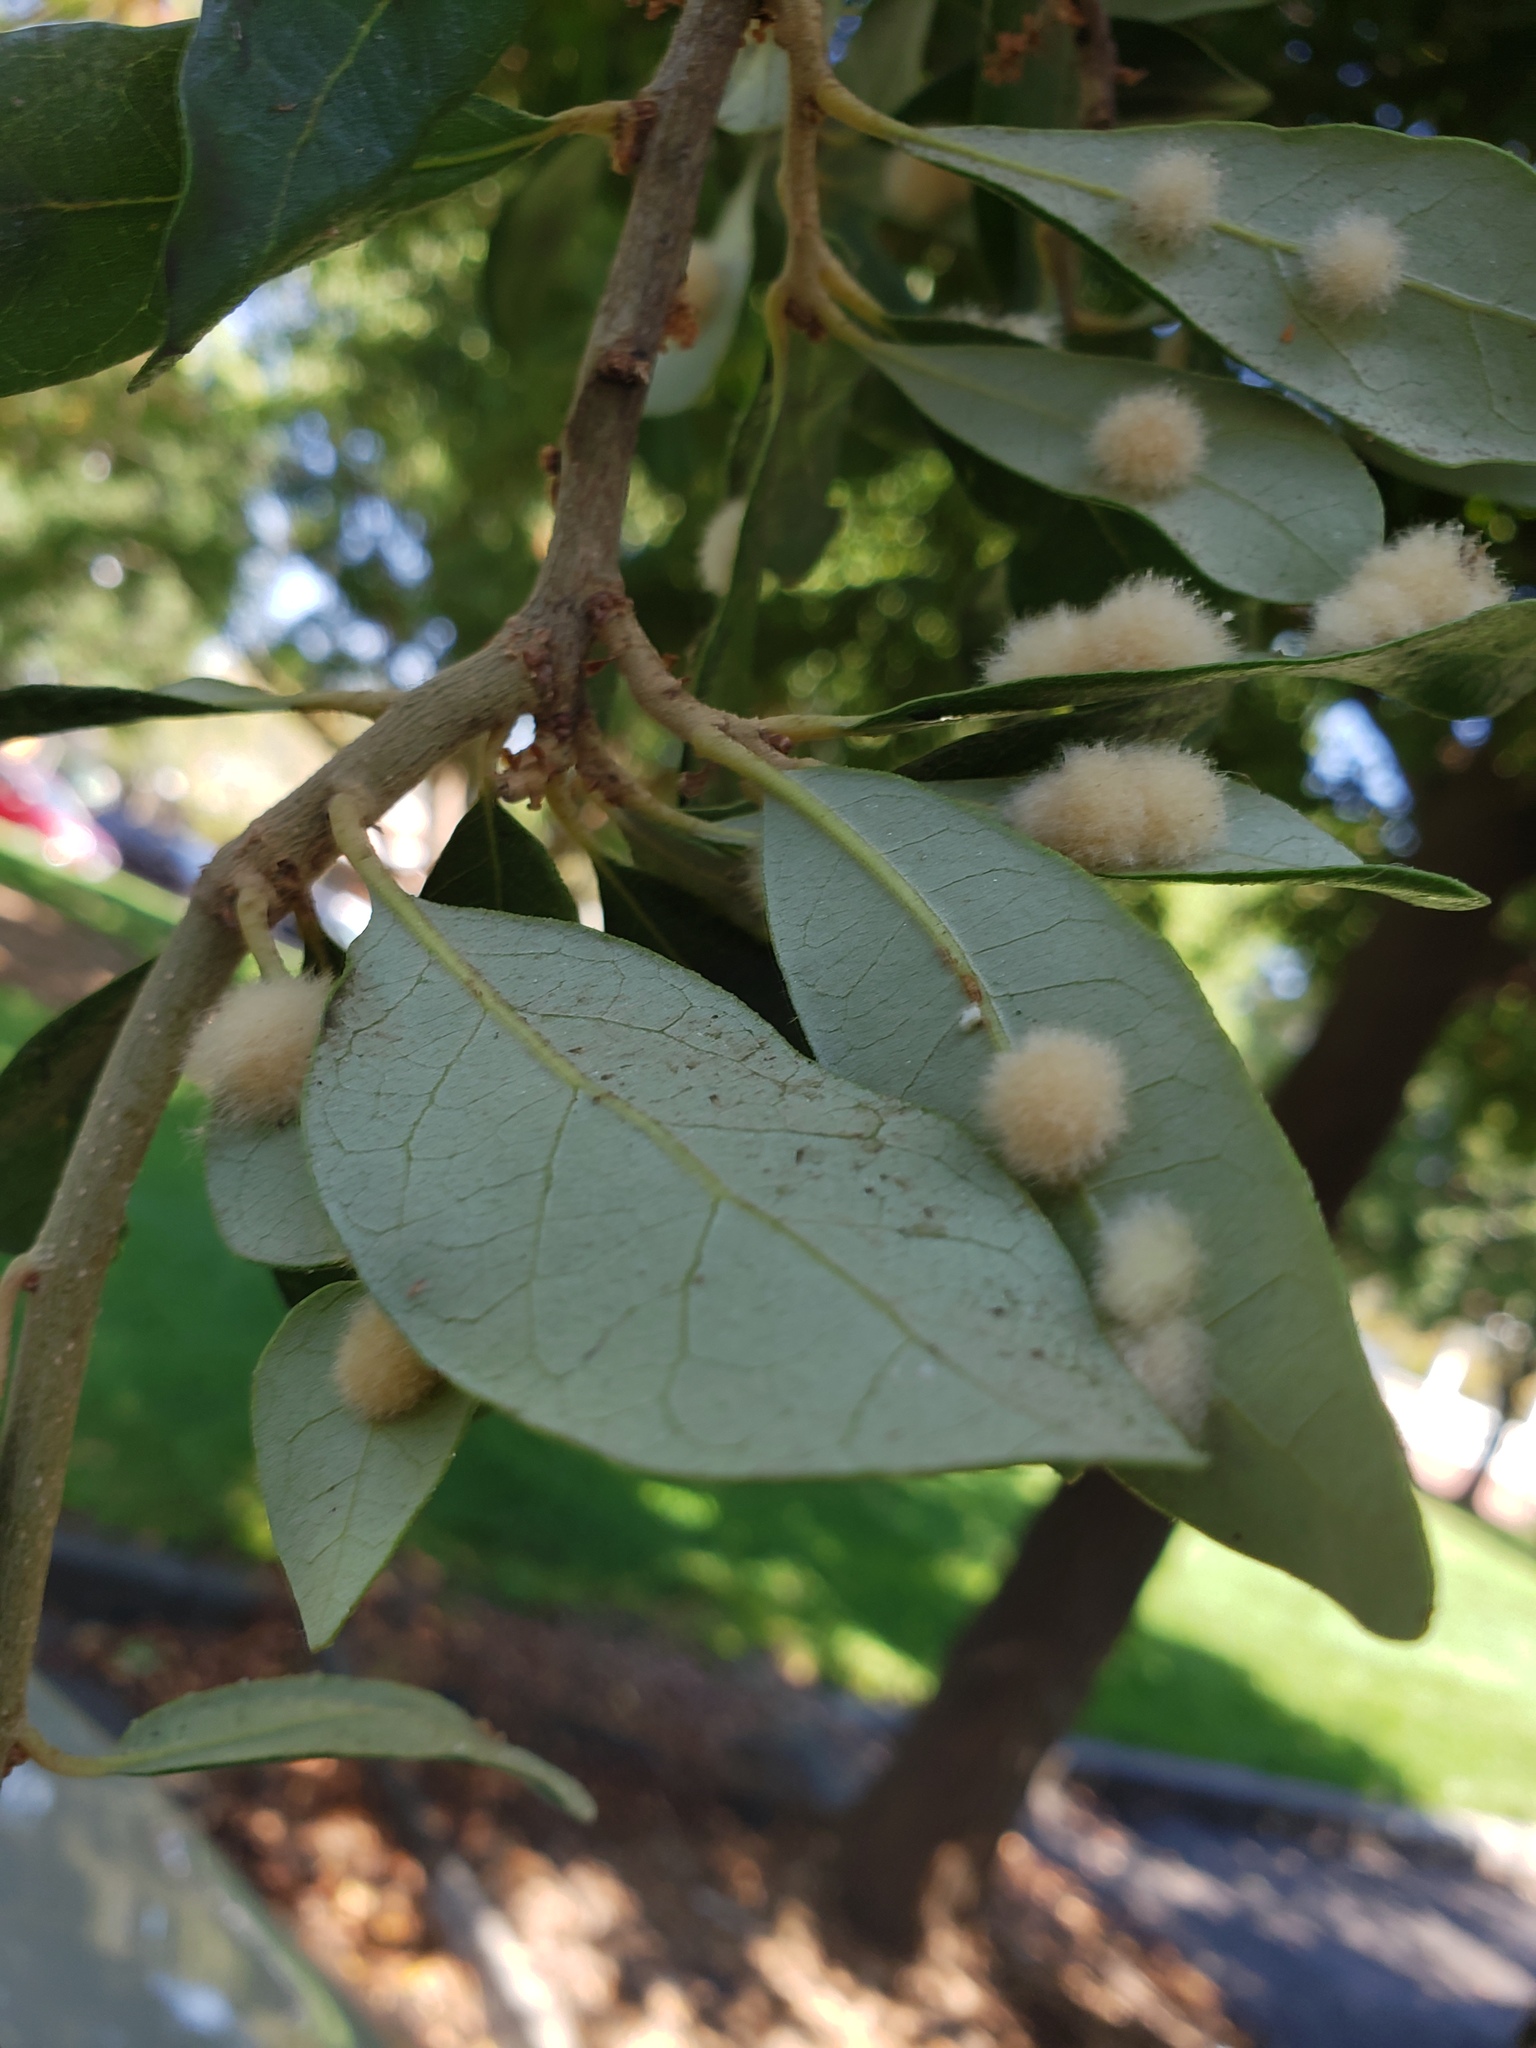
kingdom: Animalia
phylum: Arthropoda
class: Insecta
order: Hymenoptera
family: Cynipidae
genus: Andricus
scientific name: Andricus Druon quercuslanigerum
